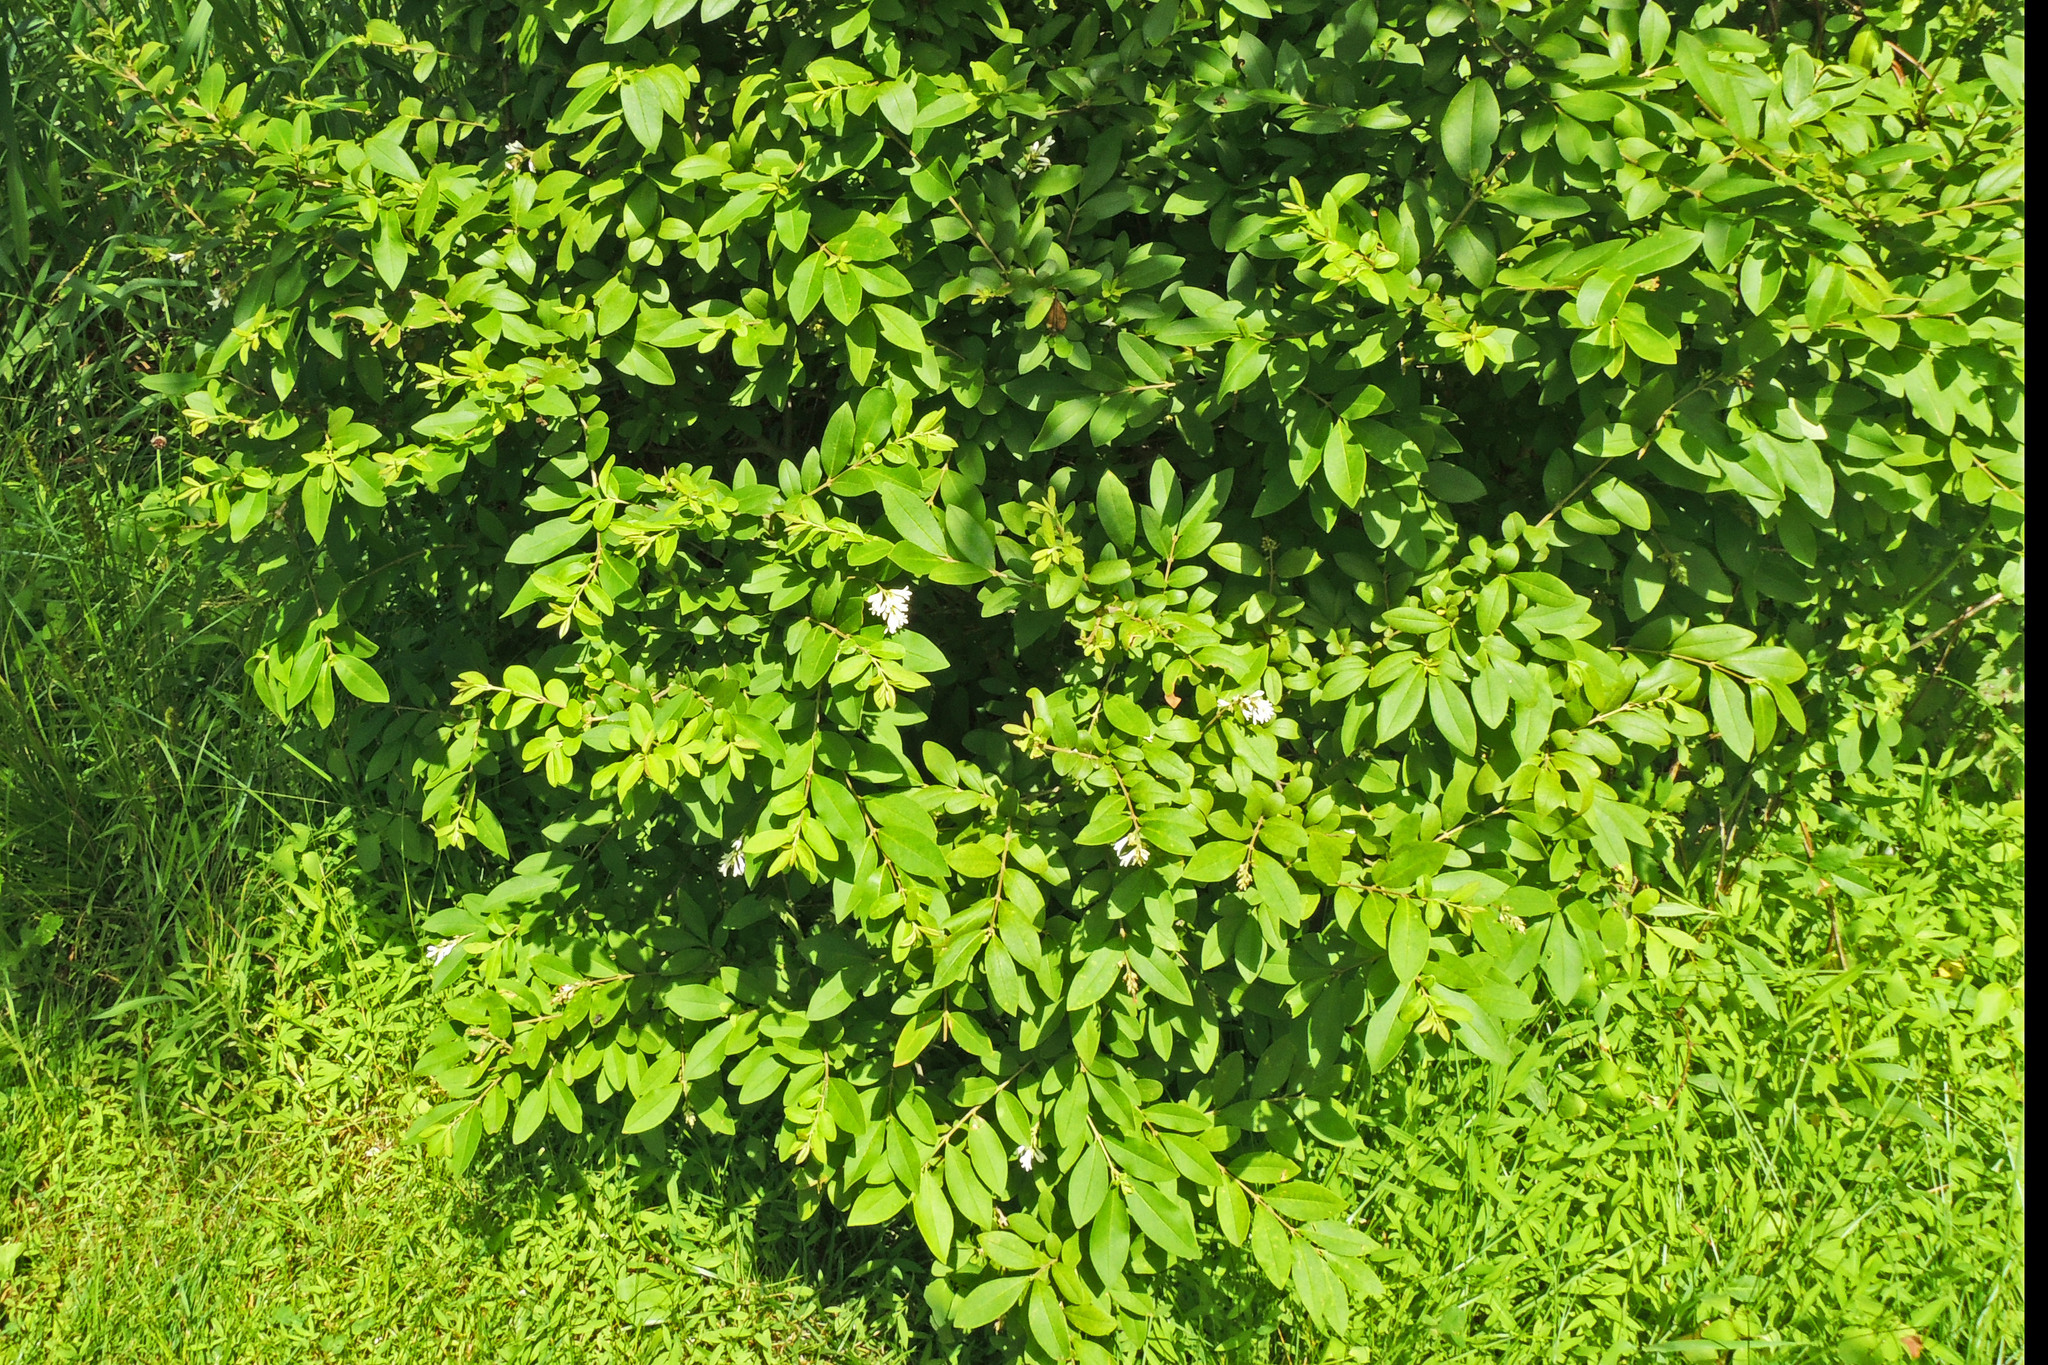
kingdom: Plantae
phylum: Tracheophyta
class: Magnoliopsida
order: Lamiales
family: Oleaceae
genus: Ligustrum
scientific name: Ligustrum obtusifolium
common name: Border privet
